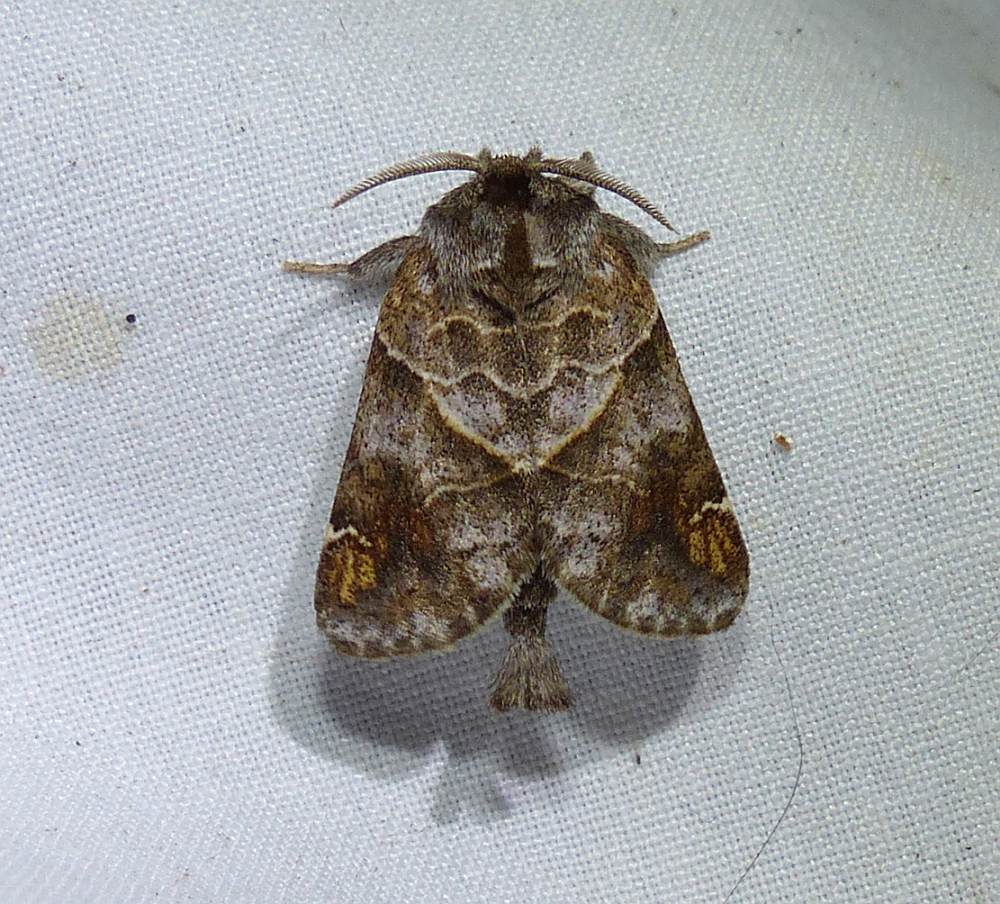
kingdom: Animalia
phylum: Arthropoda
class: Insecta
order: Lepidoptera
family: Notodontidae
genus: Clostera
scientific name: Clostera strigosa
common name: Striped chocolate-tip moth
